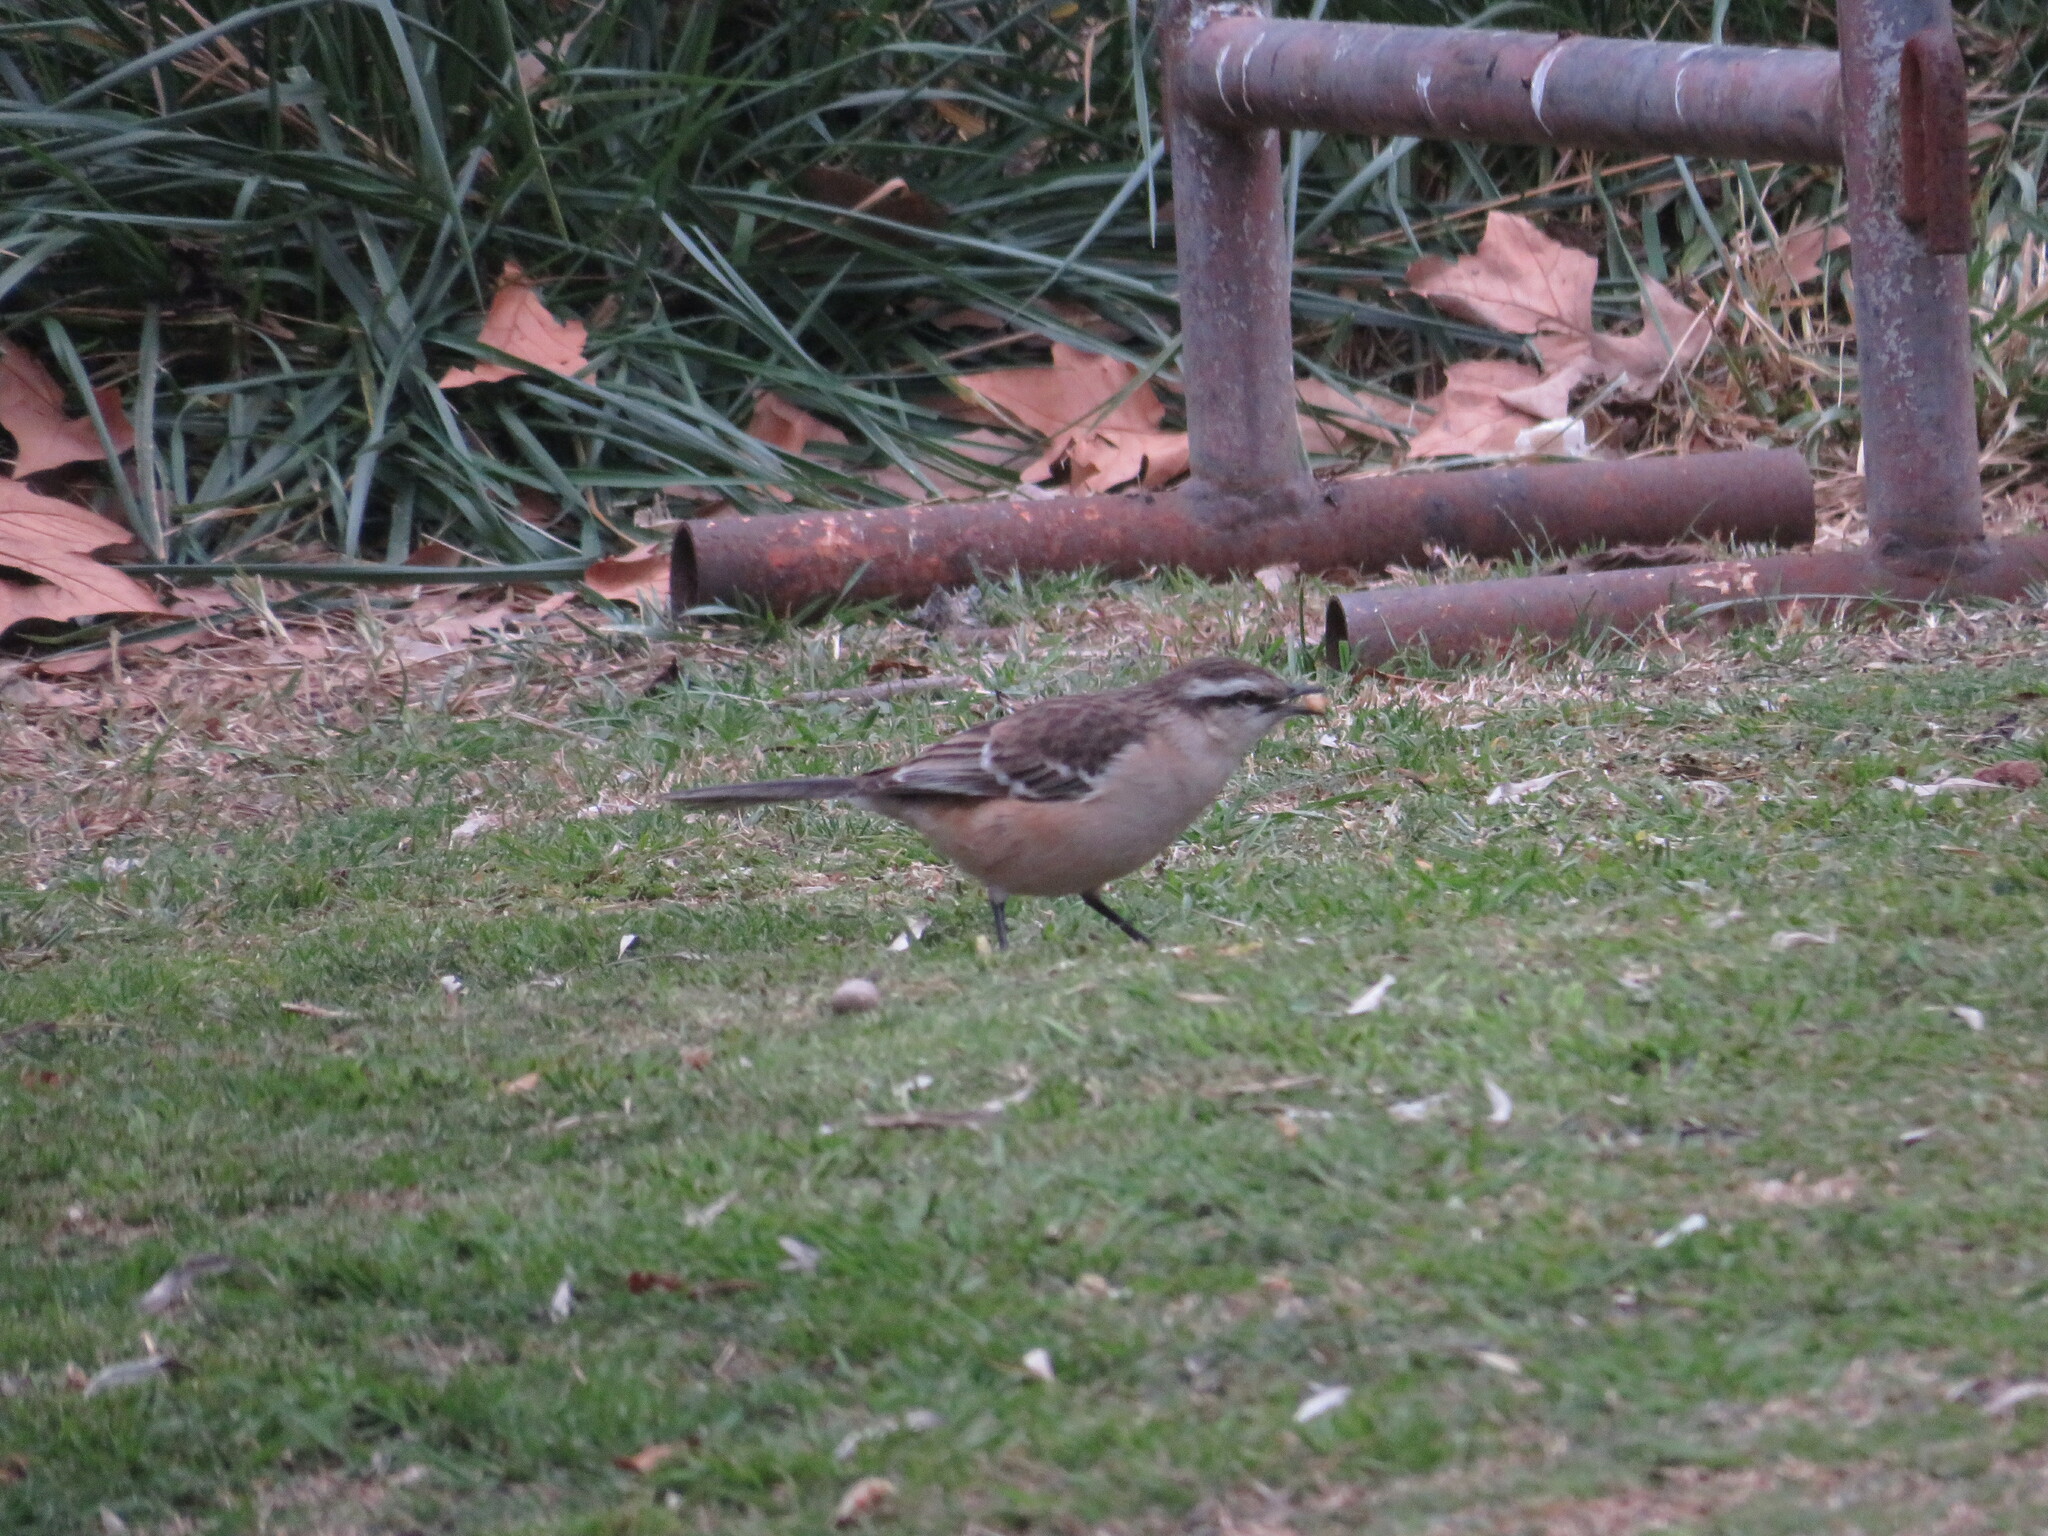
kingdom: Animalia
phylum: Chordata
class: Aves
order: Passeriformes
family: Mimidae
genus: Mimus
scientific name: Mimus saturninus
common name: Chalk-browed mockingbird
